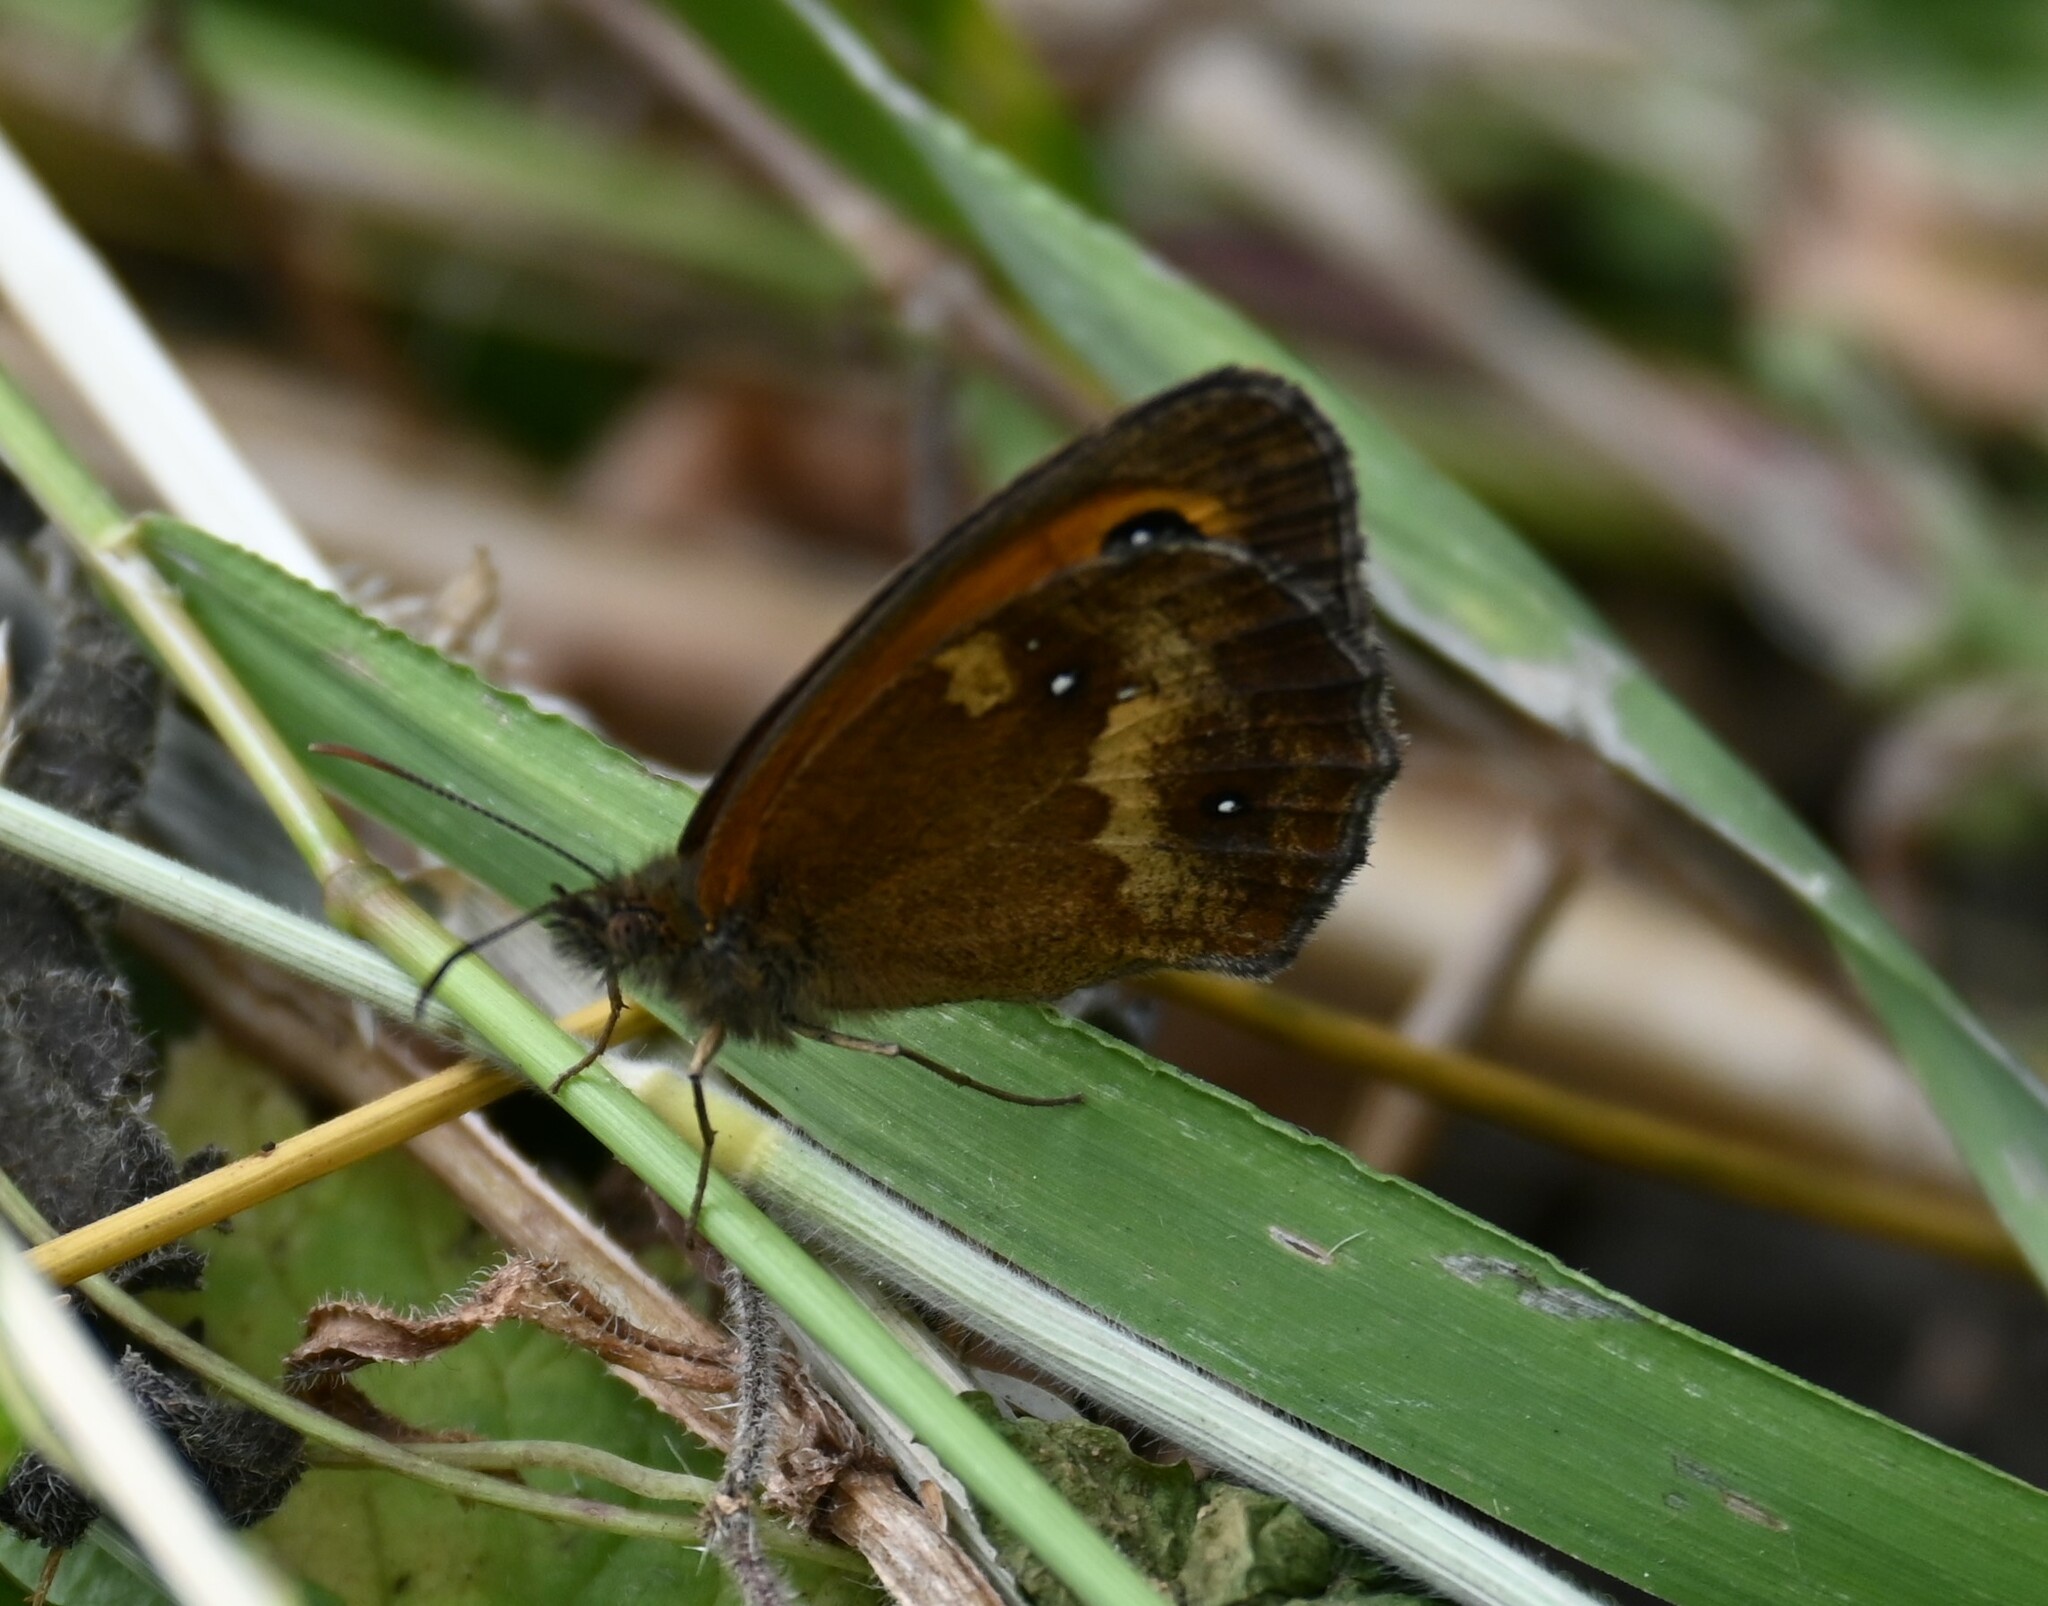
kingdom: Animalia
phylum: Arthropoda
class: Insecta
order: Lepidoptera
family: Nymphalidae
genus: Pyronia
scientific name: Pyronia tithonus
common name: Gatekeeper
